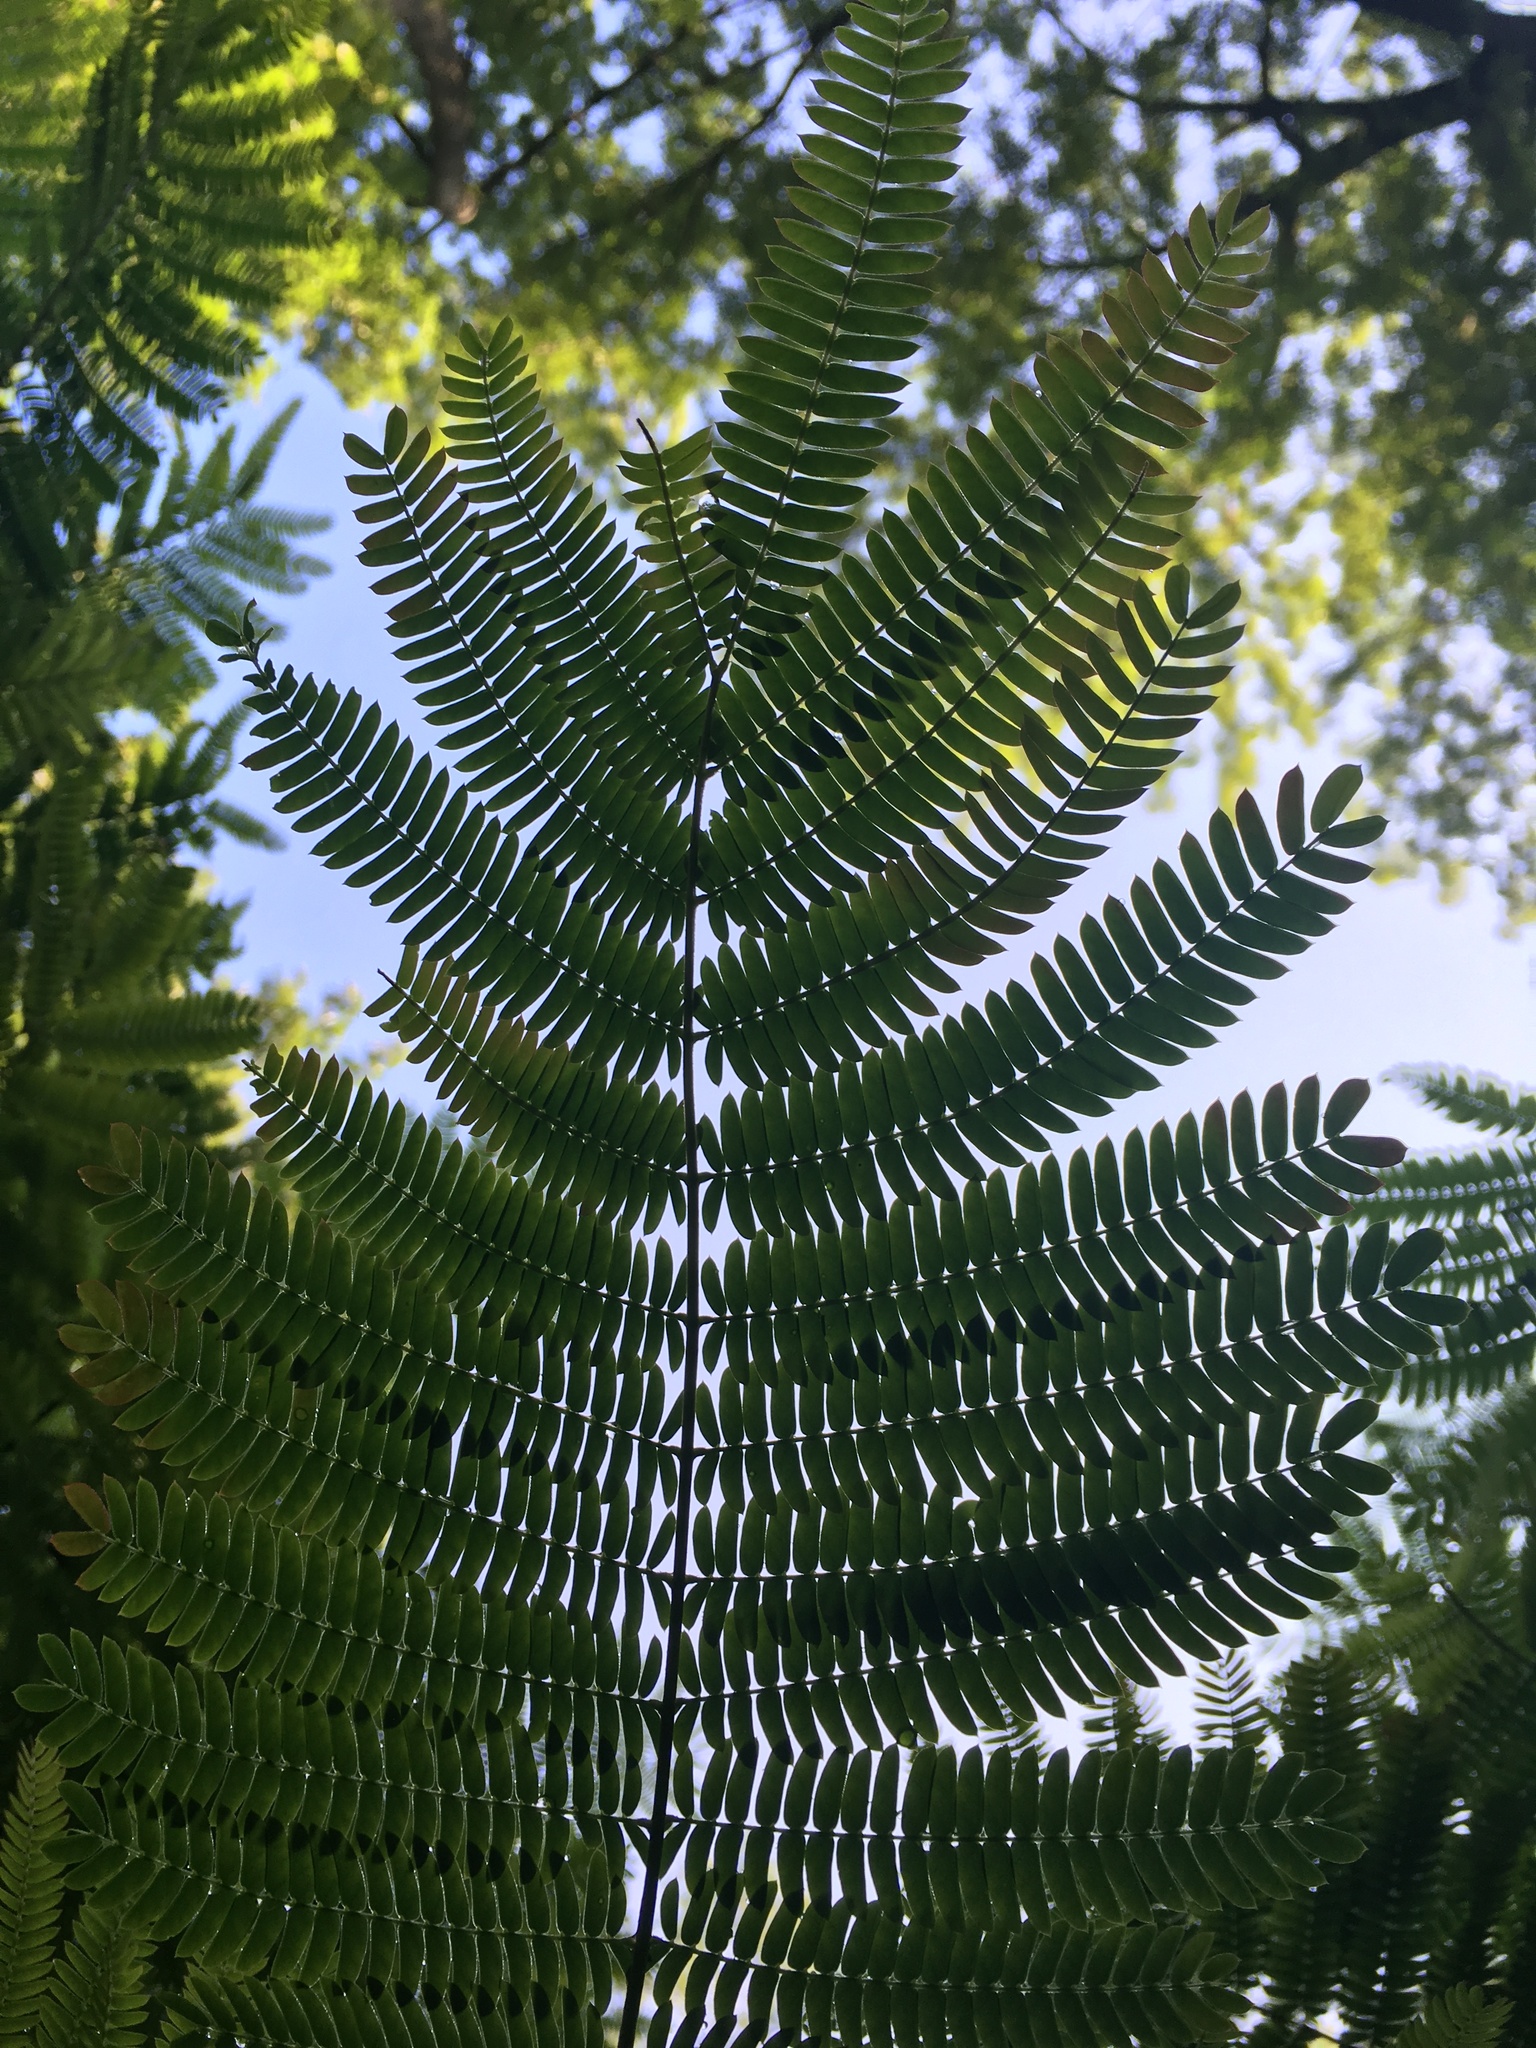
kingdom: Plantae
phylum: Tracheophyta
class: Magnoliopsida
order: Fabales
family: Fabaceae
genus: Albizia
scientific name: Albizia julibrissin
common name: Silktree
